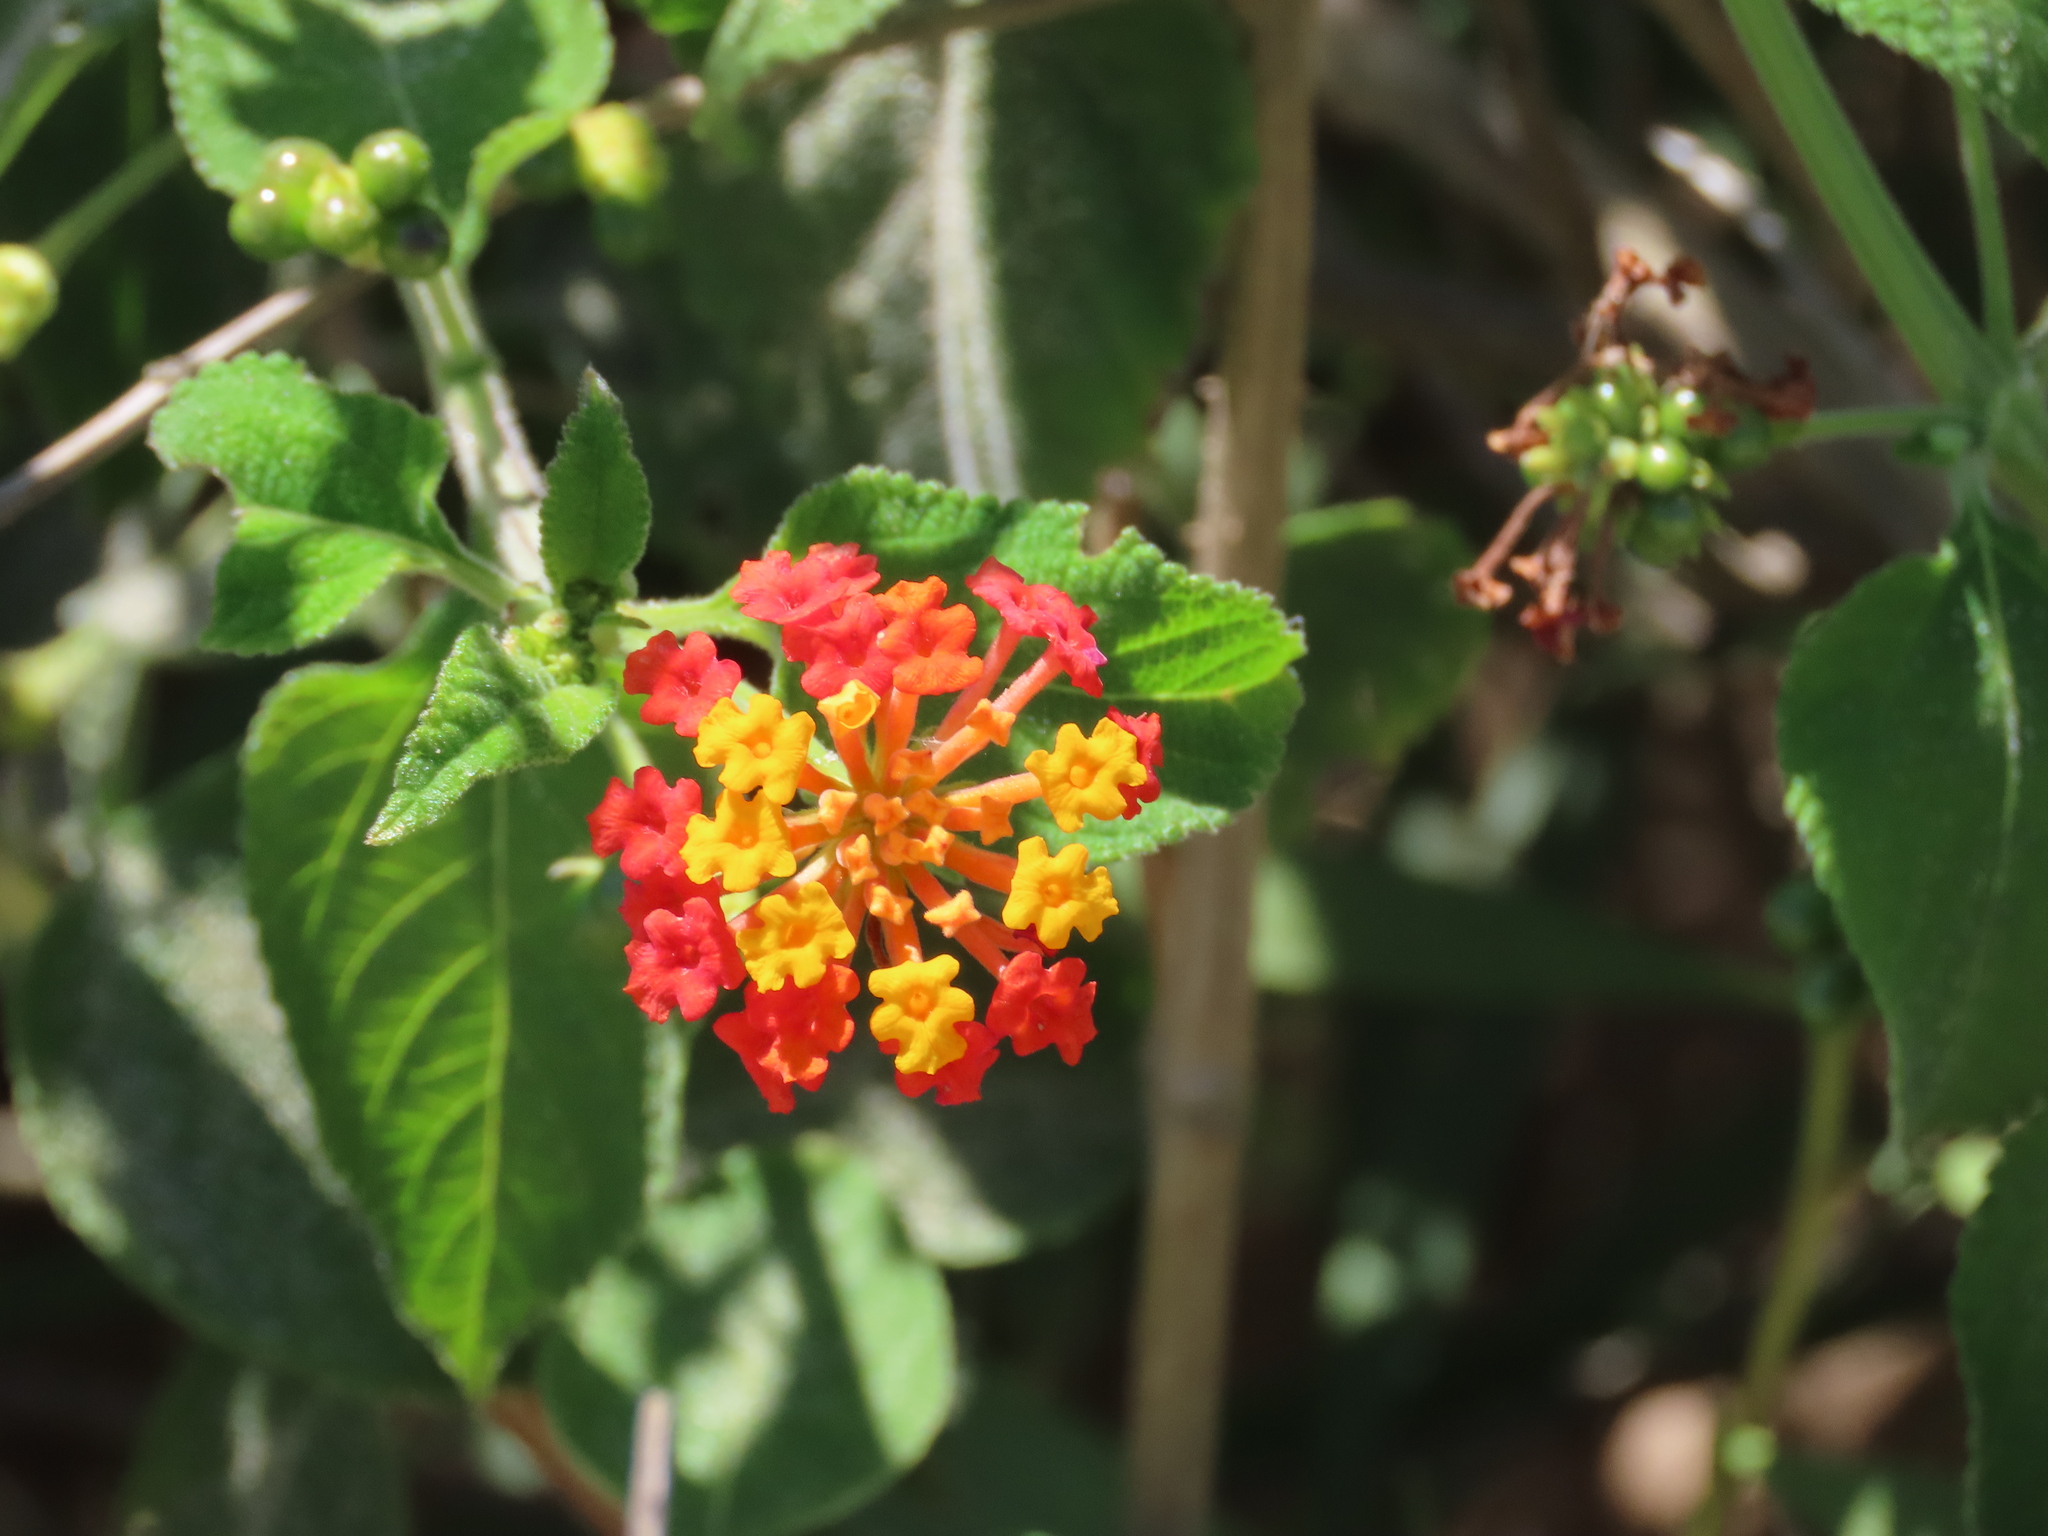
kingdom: Plantae
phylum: Tracheophyta
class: Magnoliopsida
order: Lamiales
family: Verbenaceae
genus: Lantana
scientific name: Lantana camara
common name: Lantana
